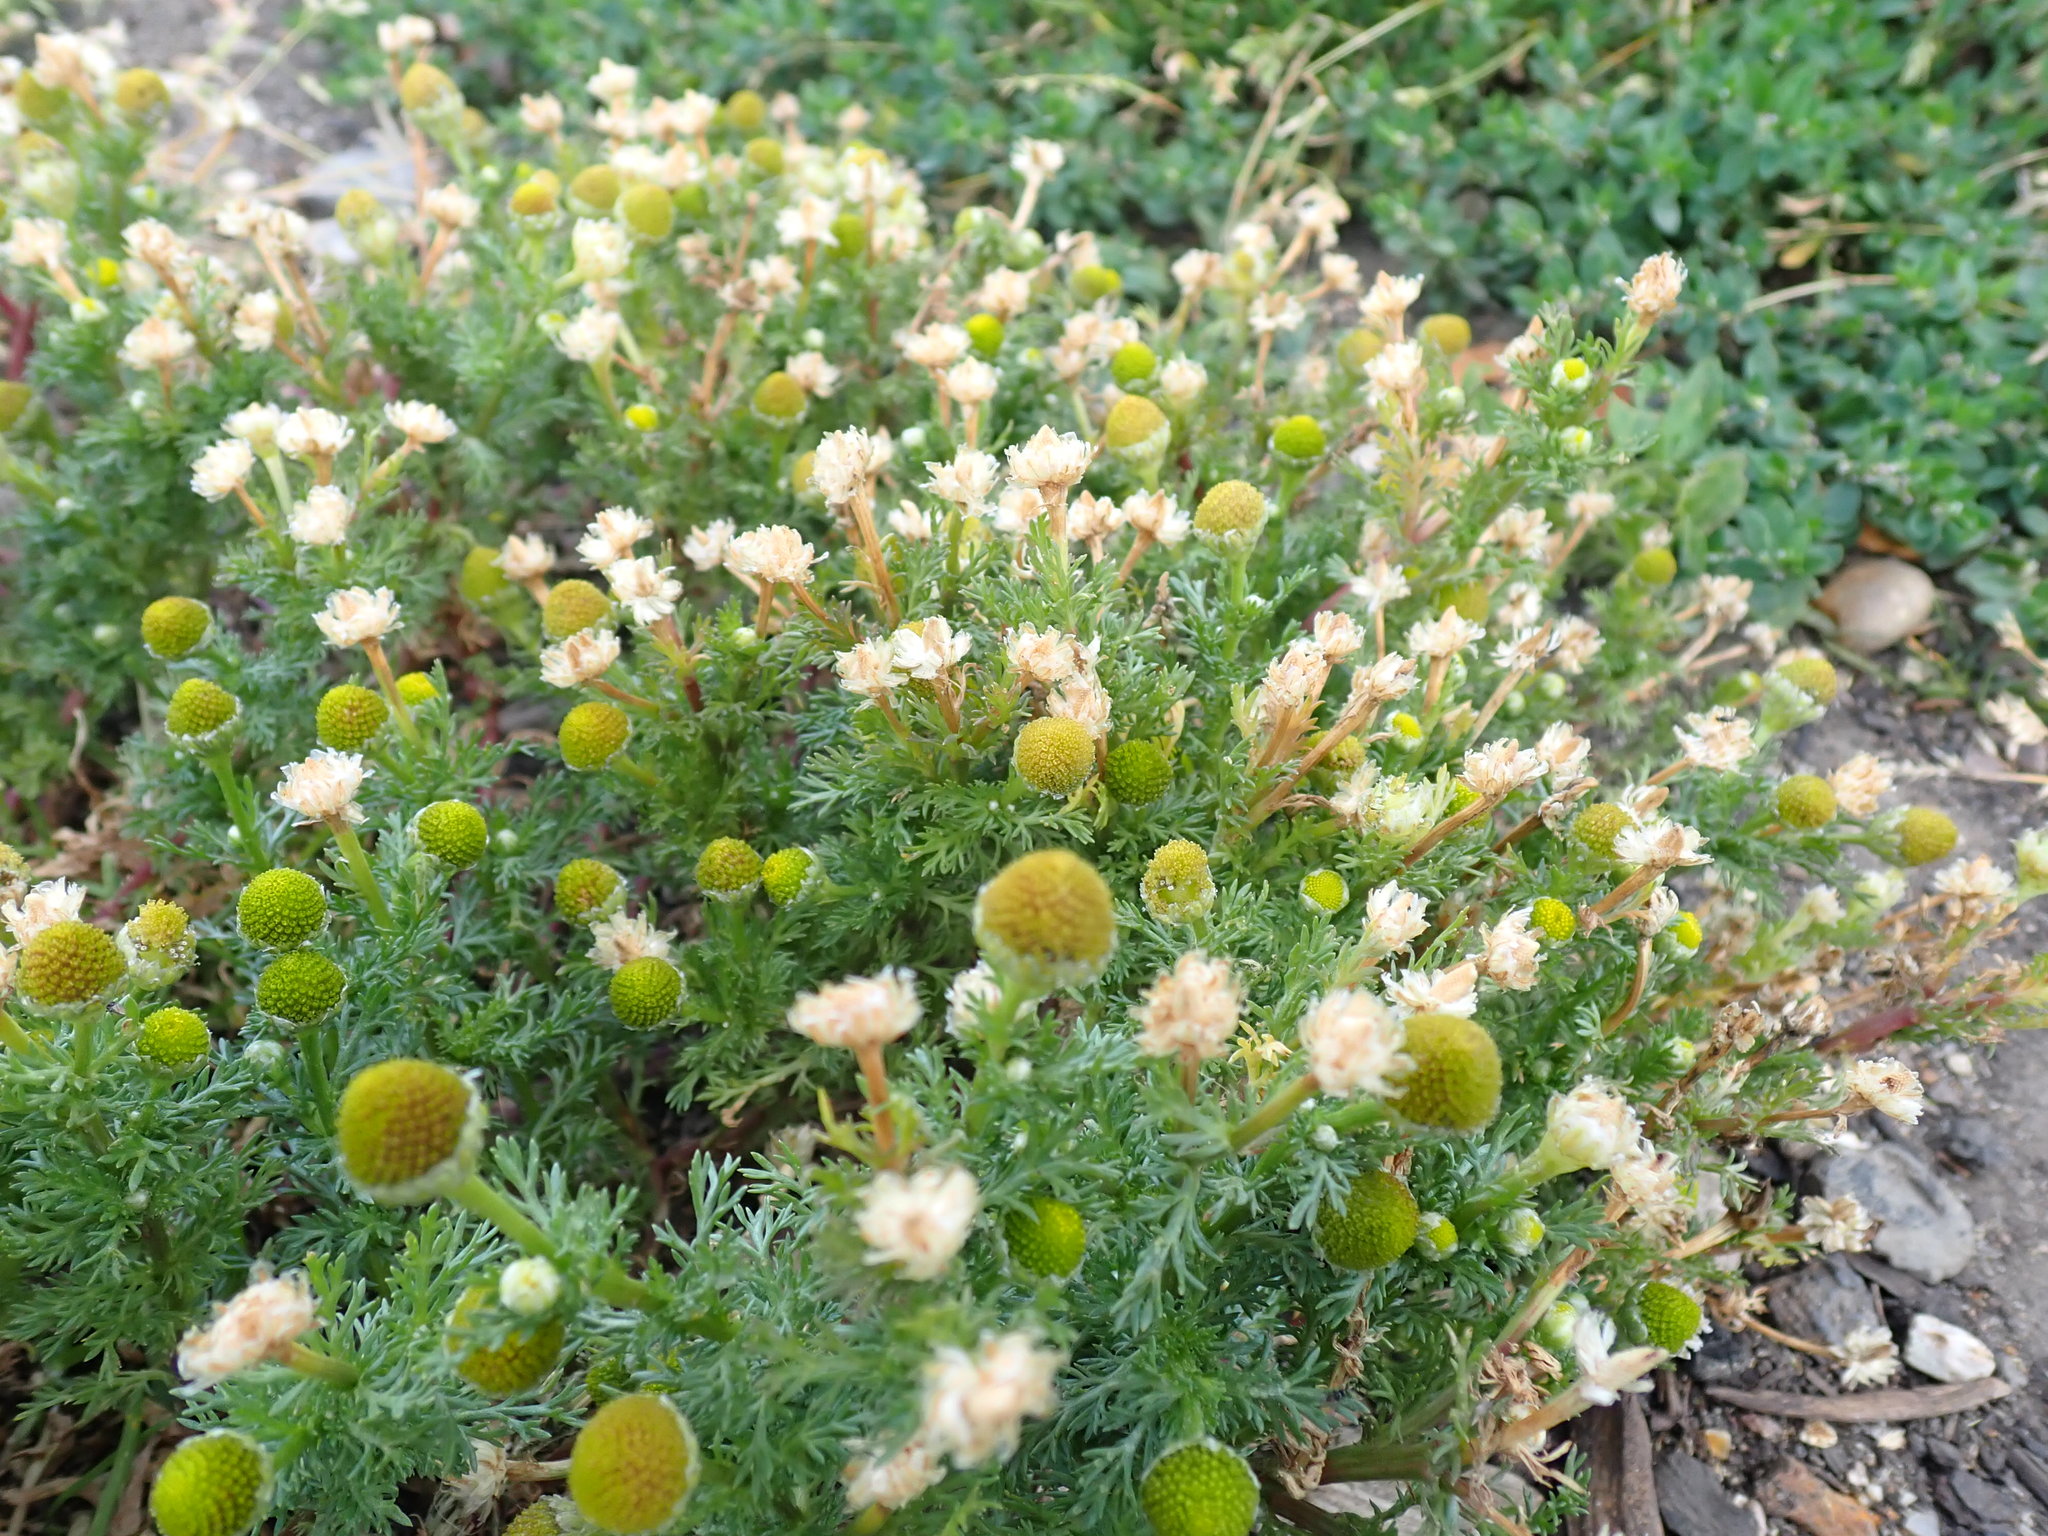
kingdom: Plantae
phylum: Tracheophyta
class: Magnoliopsida
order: Asterales
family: Asteraceae
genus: Matricaria
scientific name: Matricaria discoidea
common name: Disc mayweed
